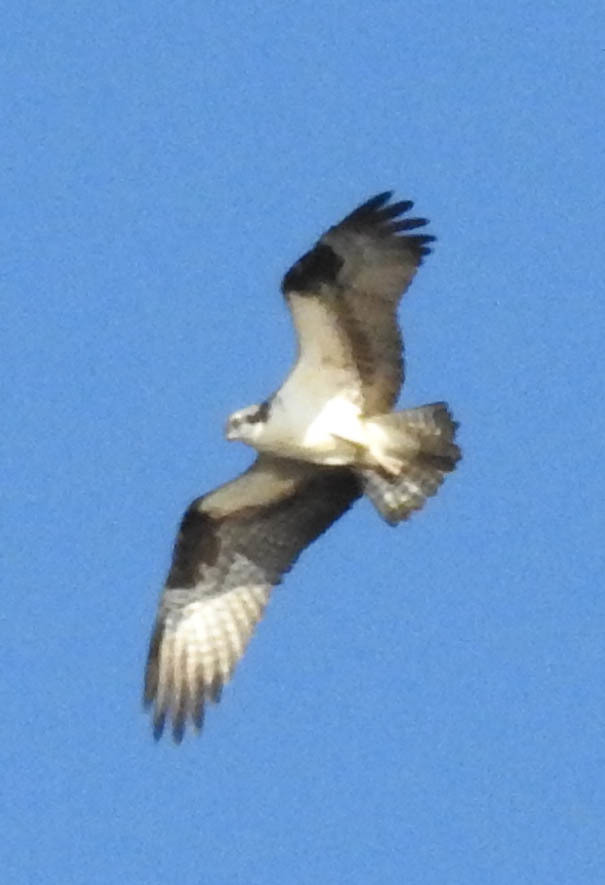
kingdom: Animalia
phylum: Chordata
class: Aves
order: Accipitriformes
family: Pandionidae
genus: Pandion
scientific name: Pandion haliaetus
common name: Osprey
